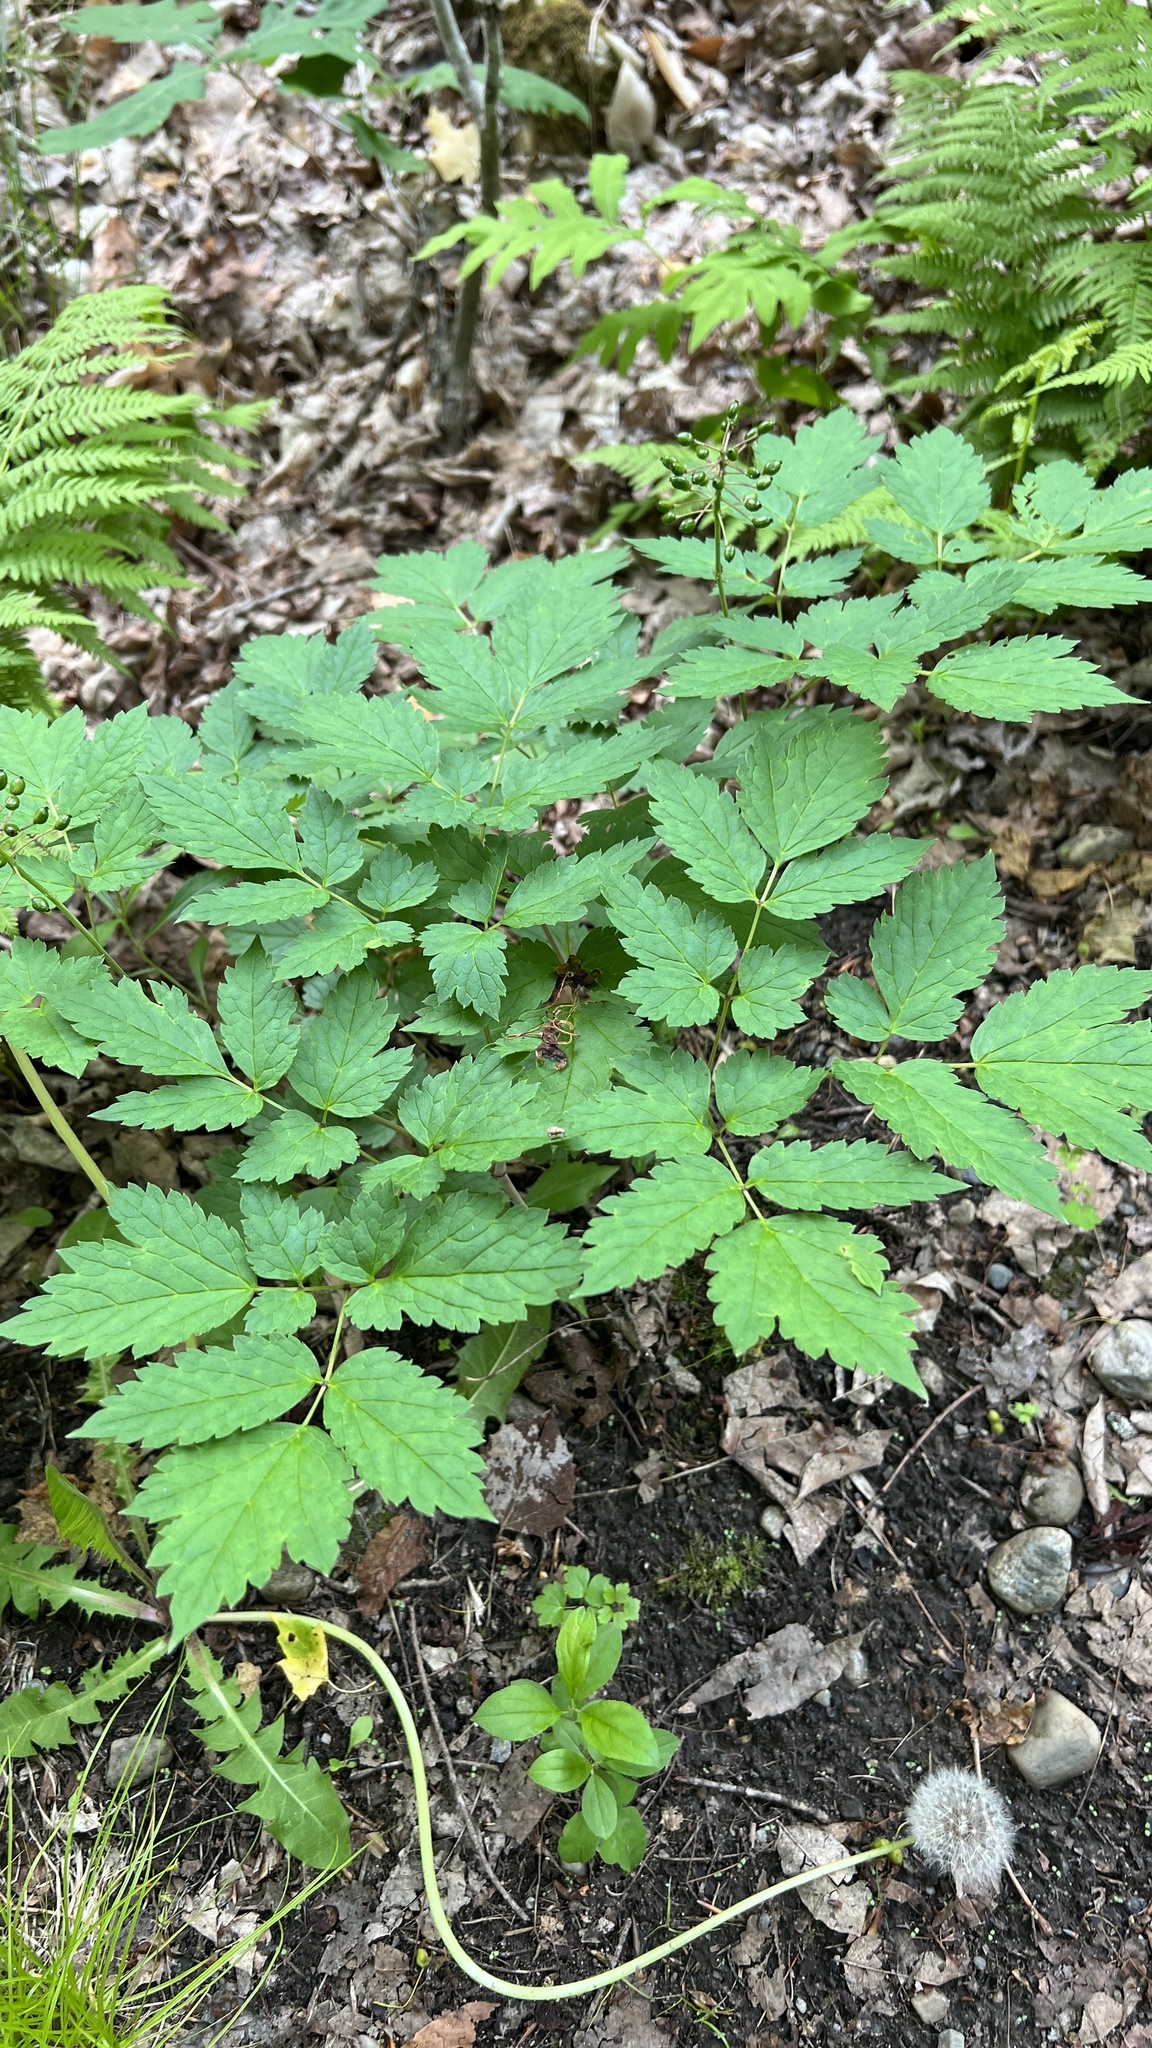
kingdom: Plantae
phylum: Tracheophyta
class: Magnoliopsida
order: Ranunculales
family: Ranunculaceae
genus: Actaea
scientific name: Actaea rubra
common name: Red baneberry
